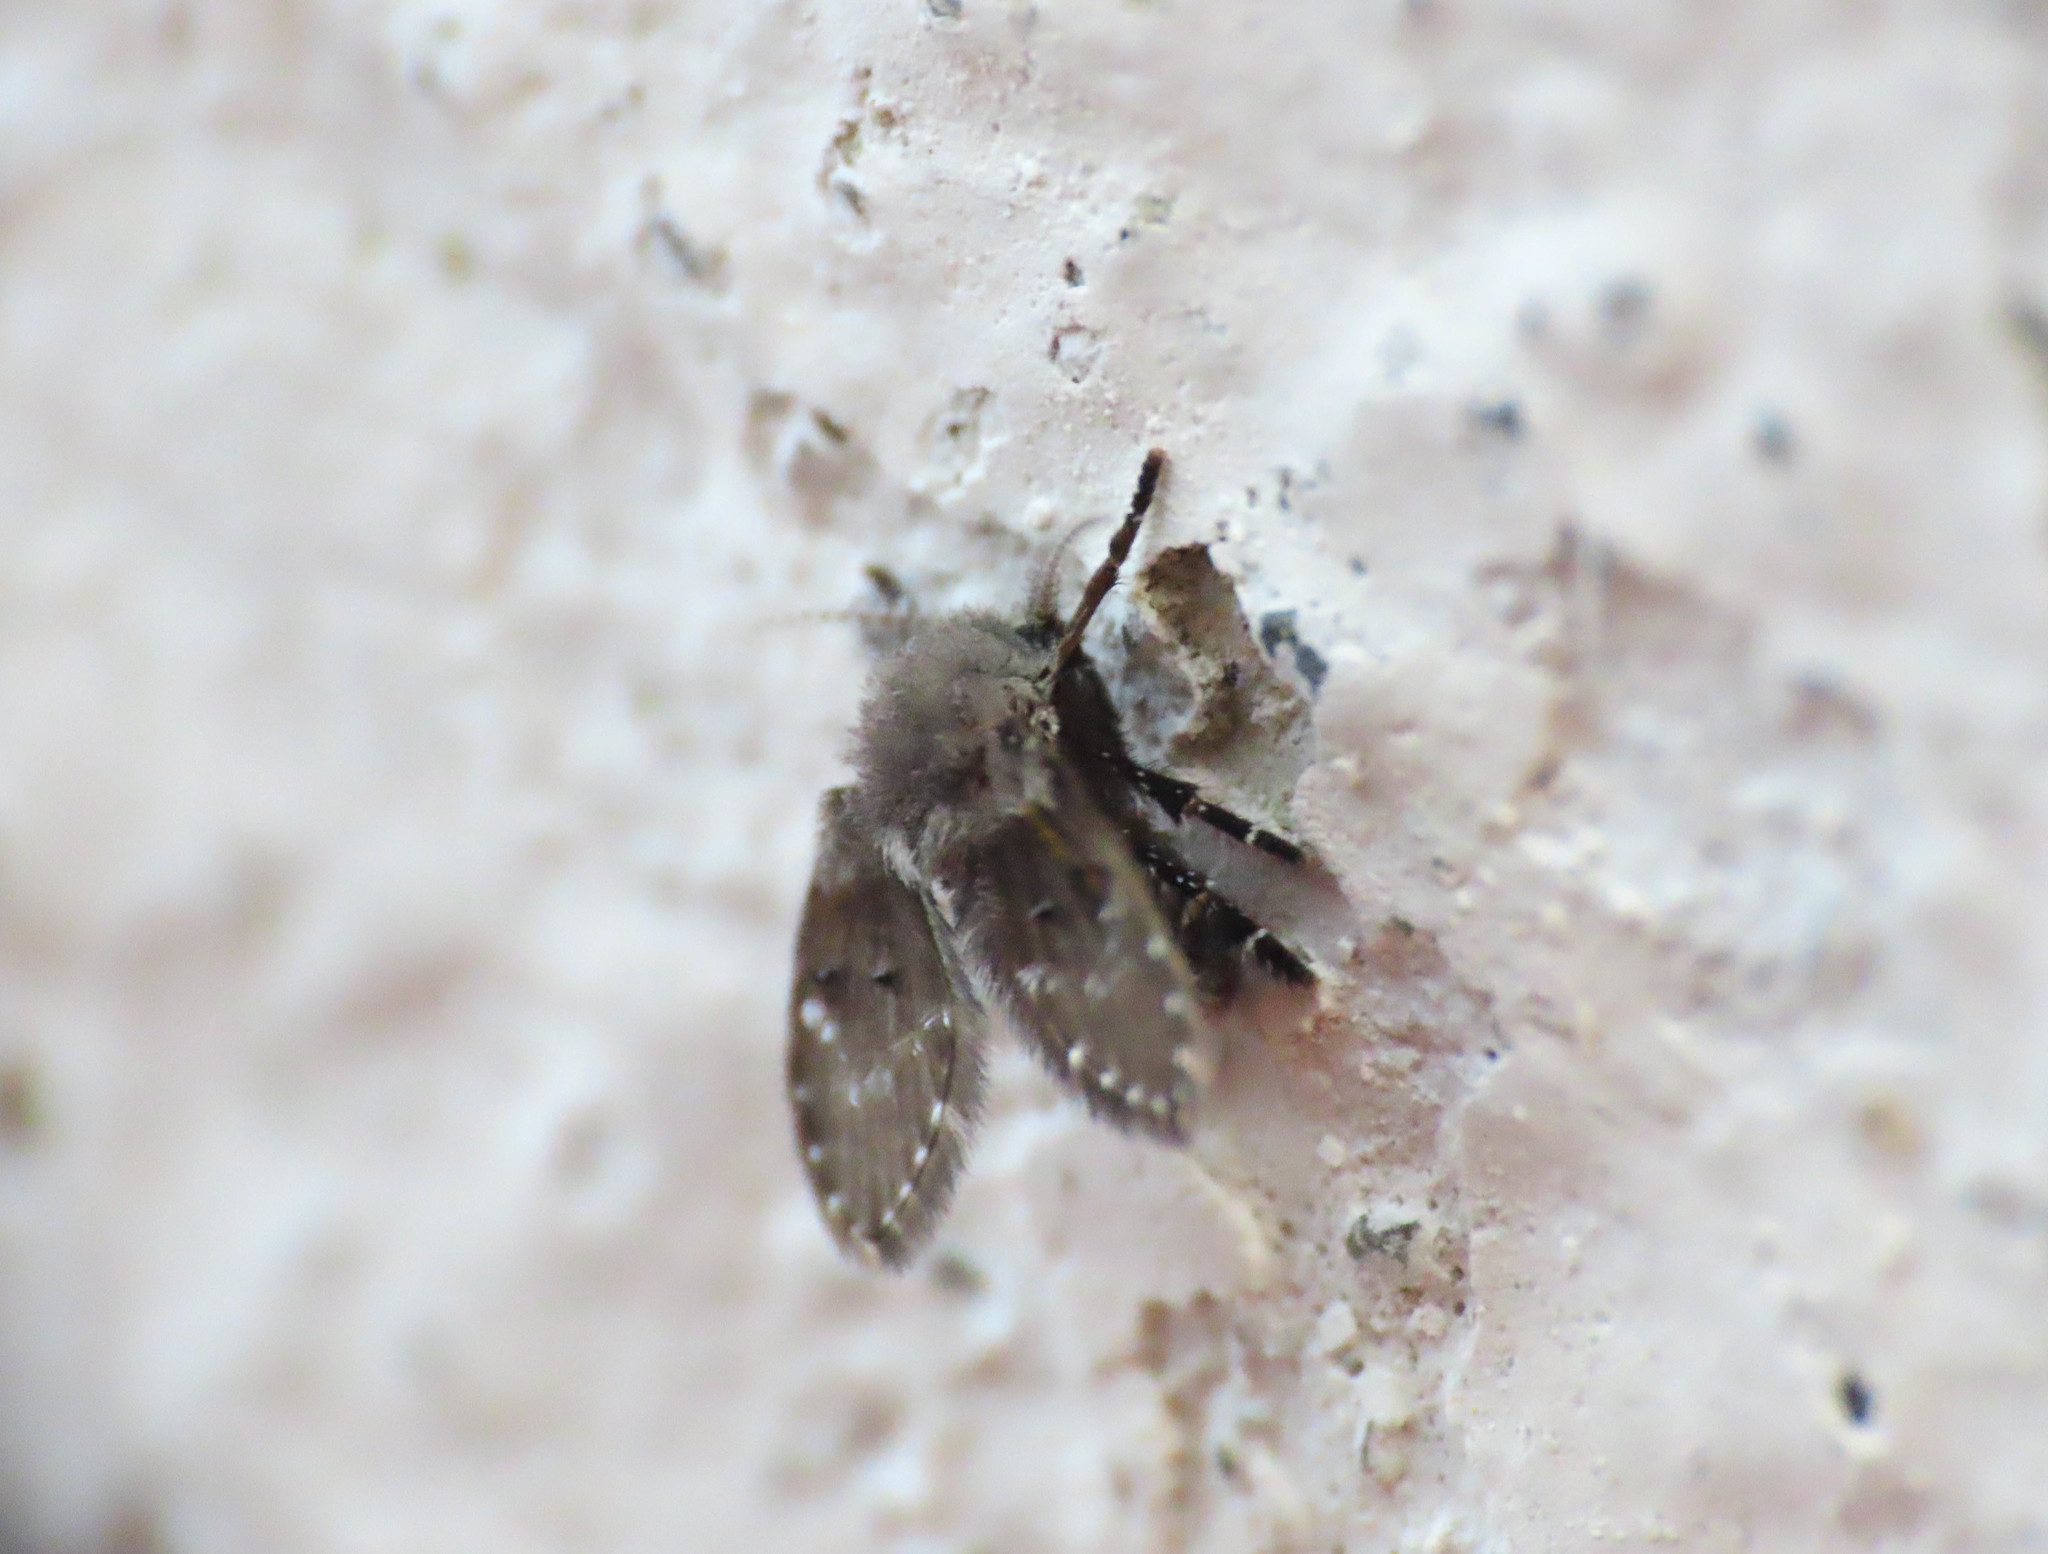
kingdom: Animalia
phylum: Arthropoda
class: Insecta
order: Diptera
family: Psychodidae
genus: Clogmia
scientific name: Clogmia albipunctatus
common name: White-spotted moth fly
